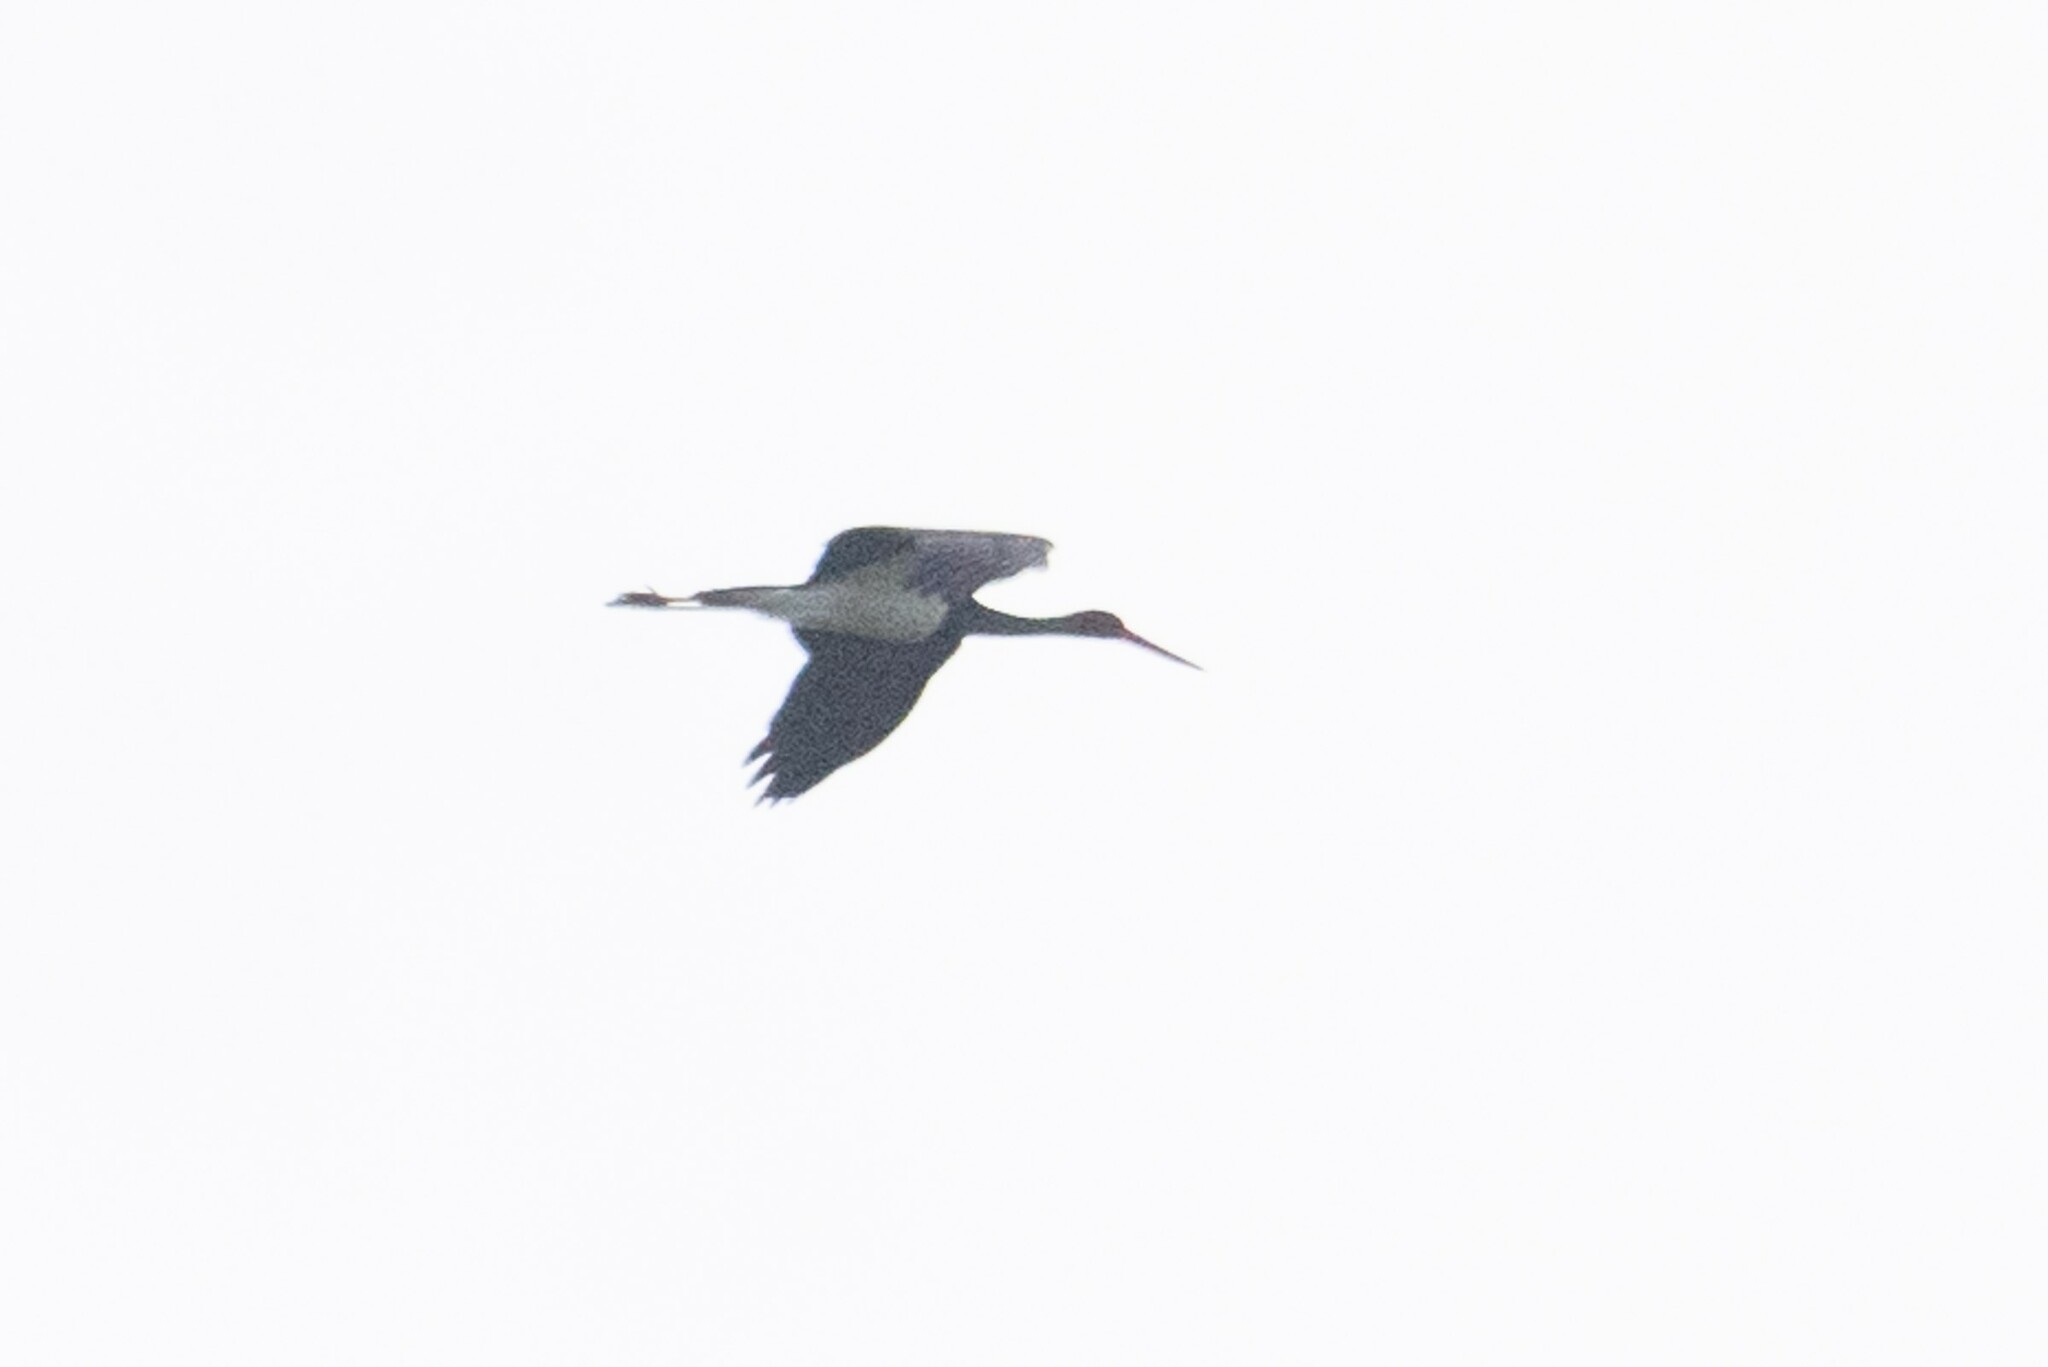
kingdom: Animalia
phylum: Chordata
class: Aves
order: Ciconiiformes
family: Ciconiidae
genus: Ciconia
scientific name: Ciconia nigra
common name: Black stork
